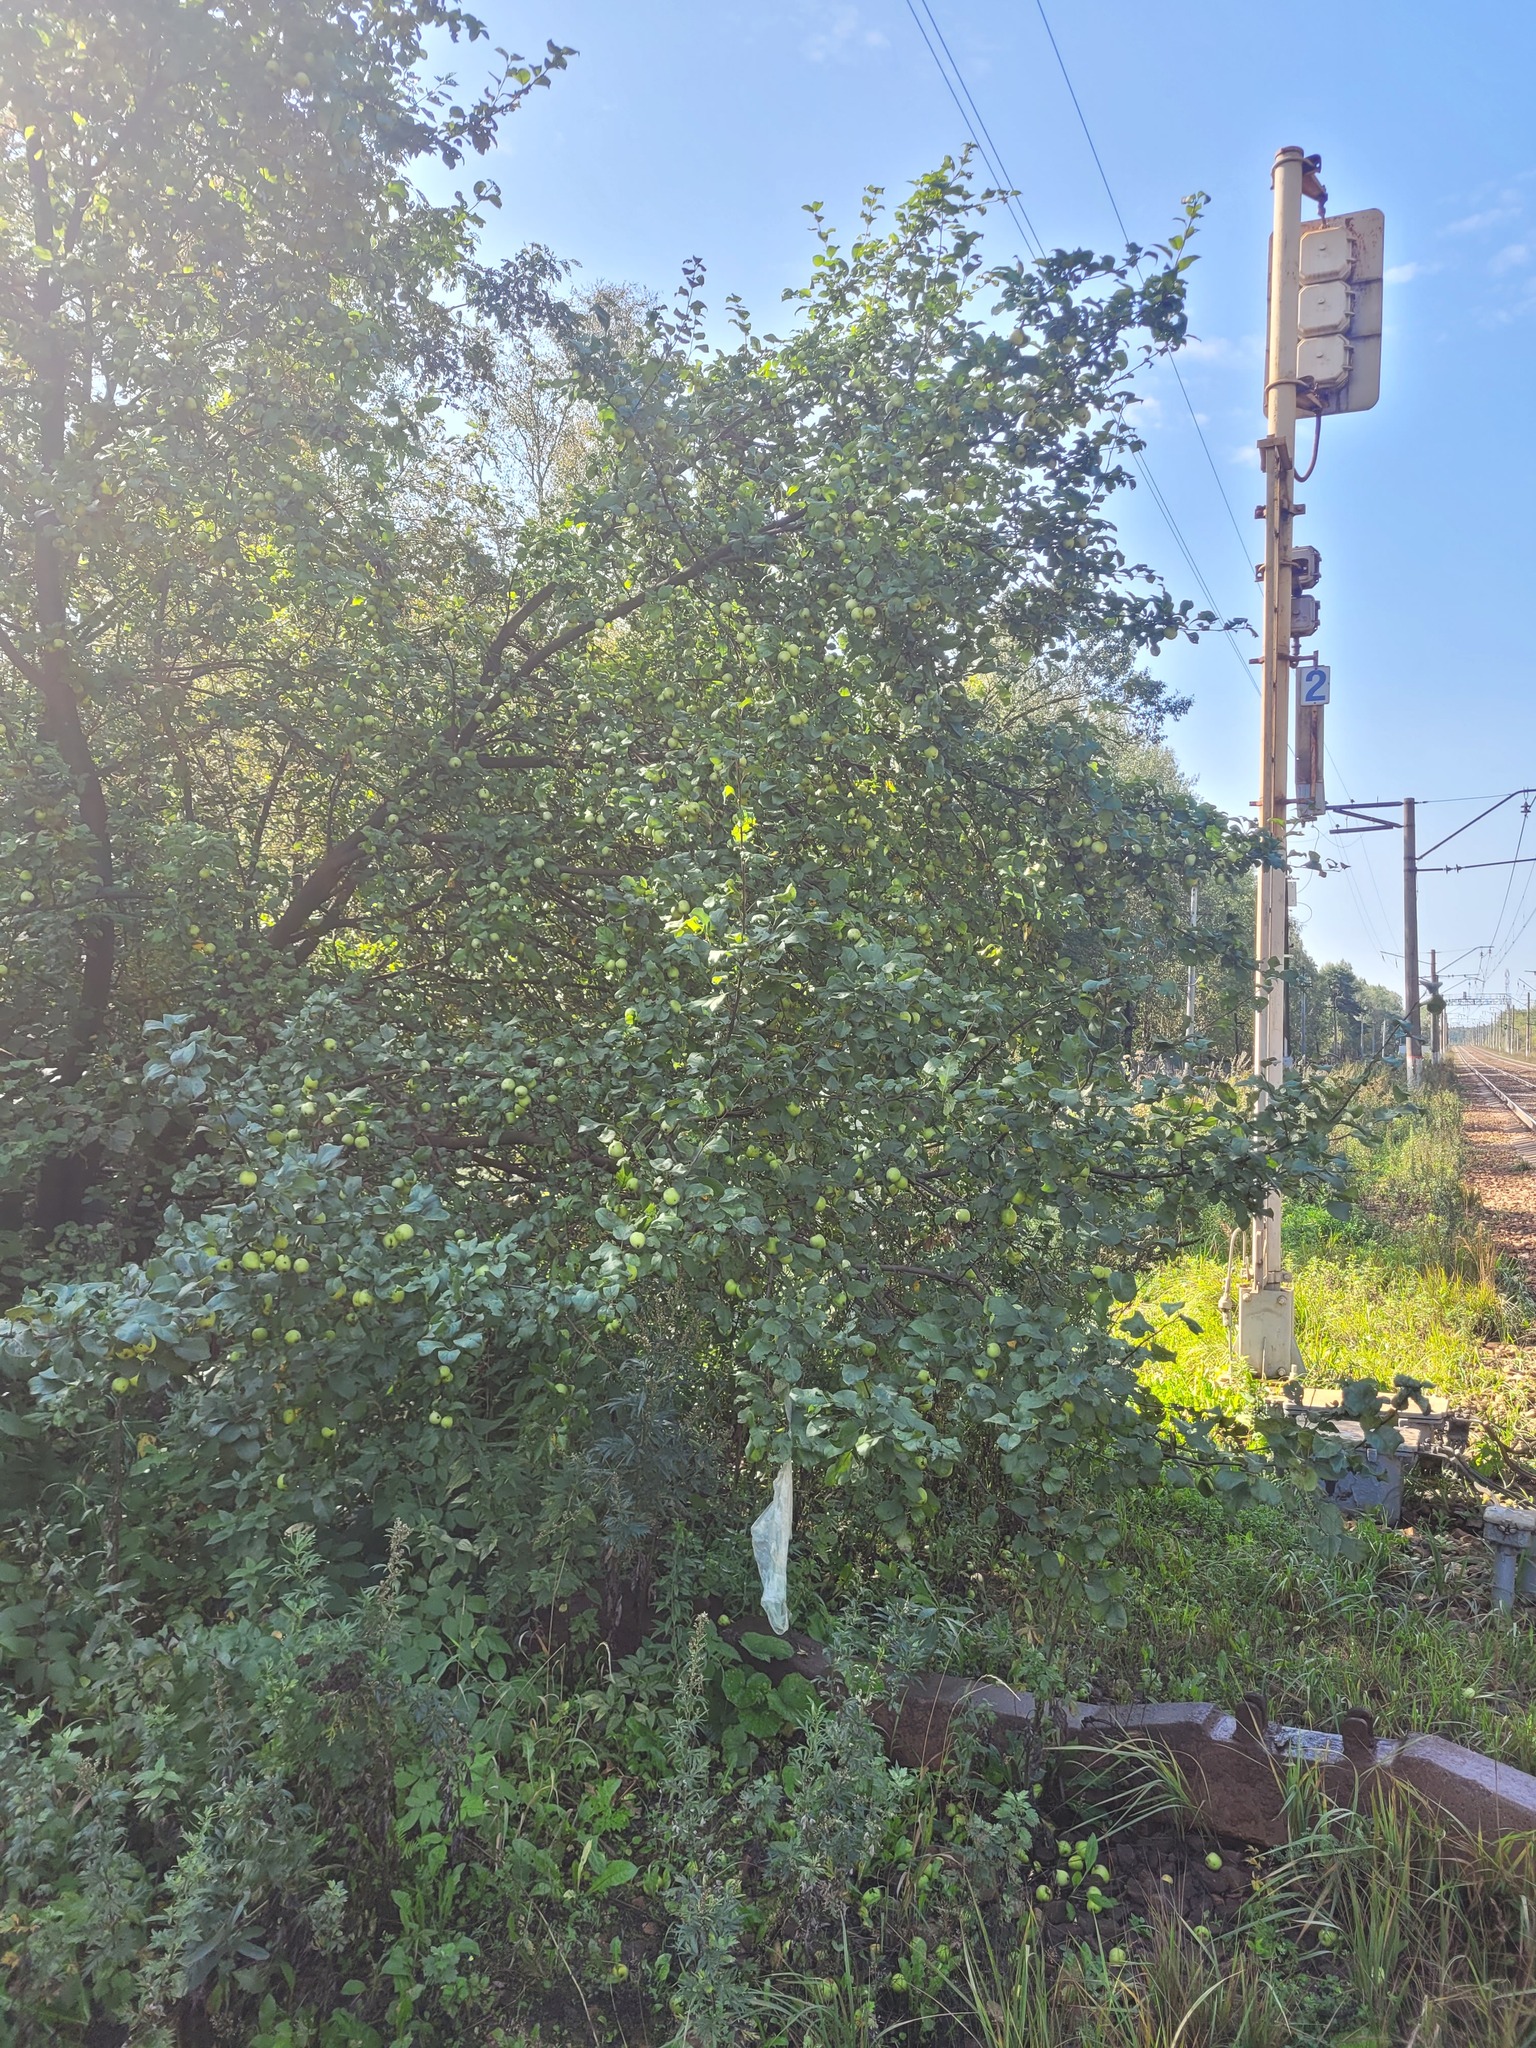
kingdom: Plantae
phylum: Tracheophyta
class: Magnoliopsida
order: Rosales
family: Rosaceae
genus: Malus
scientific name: Malus domestica
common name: Apple
